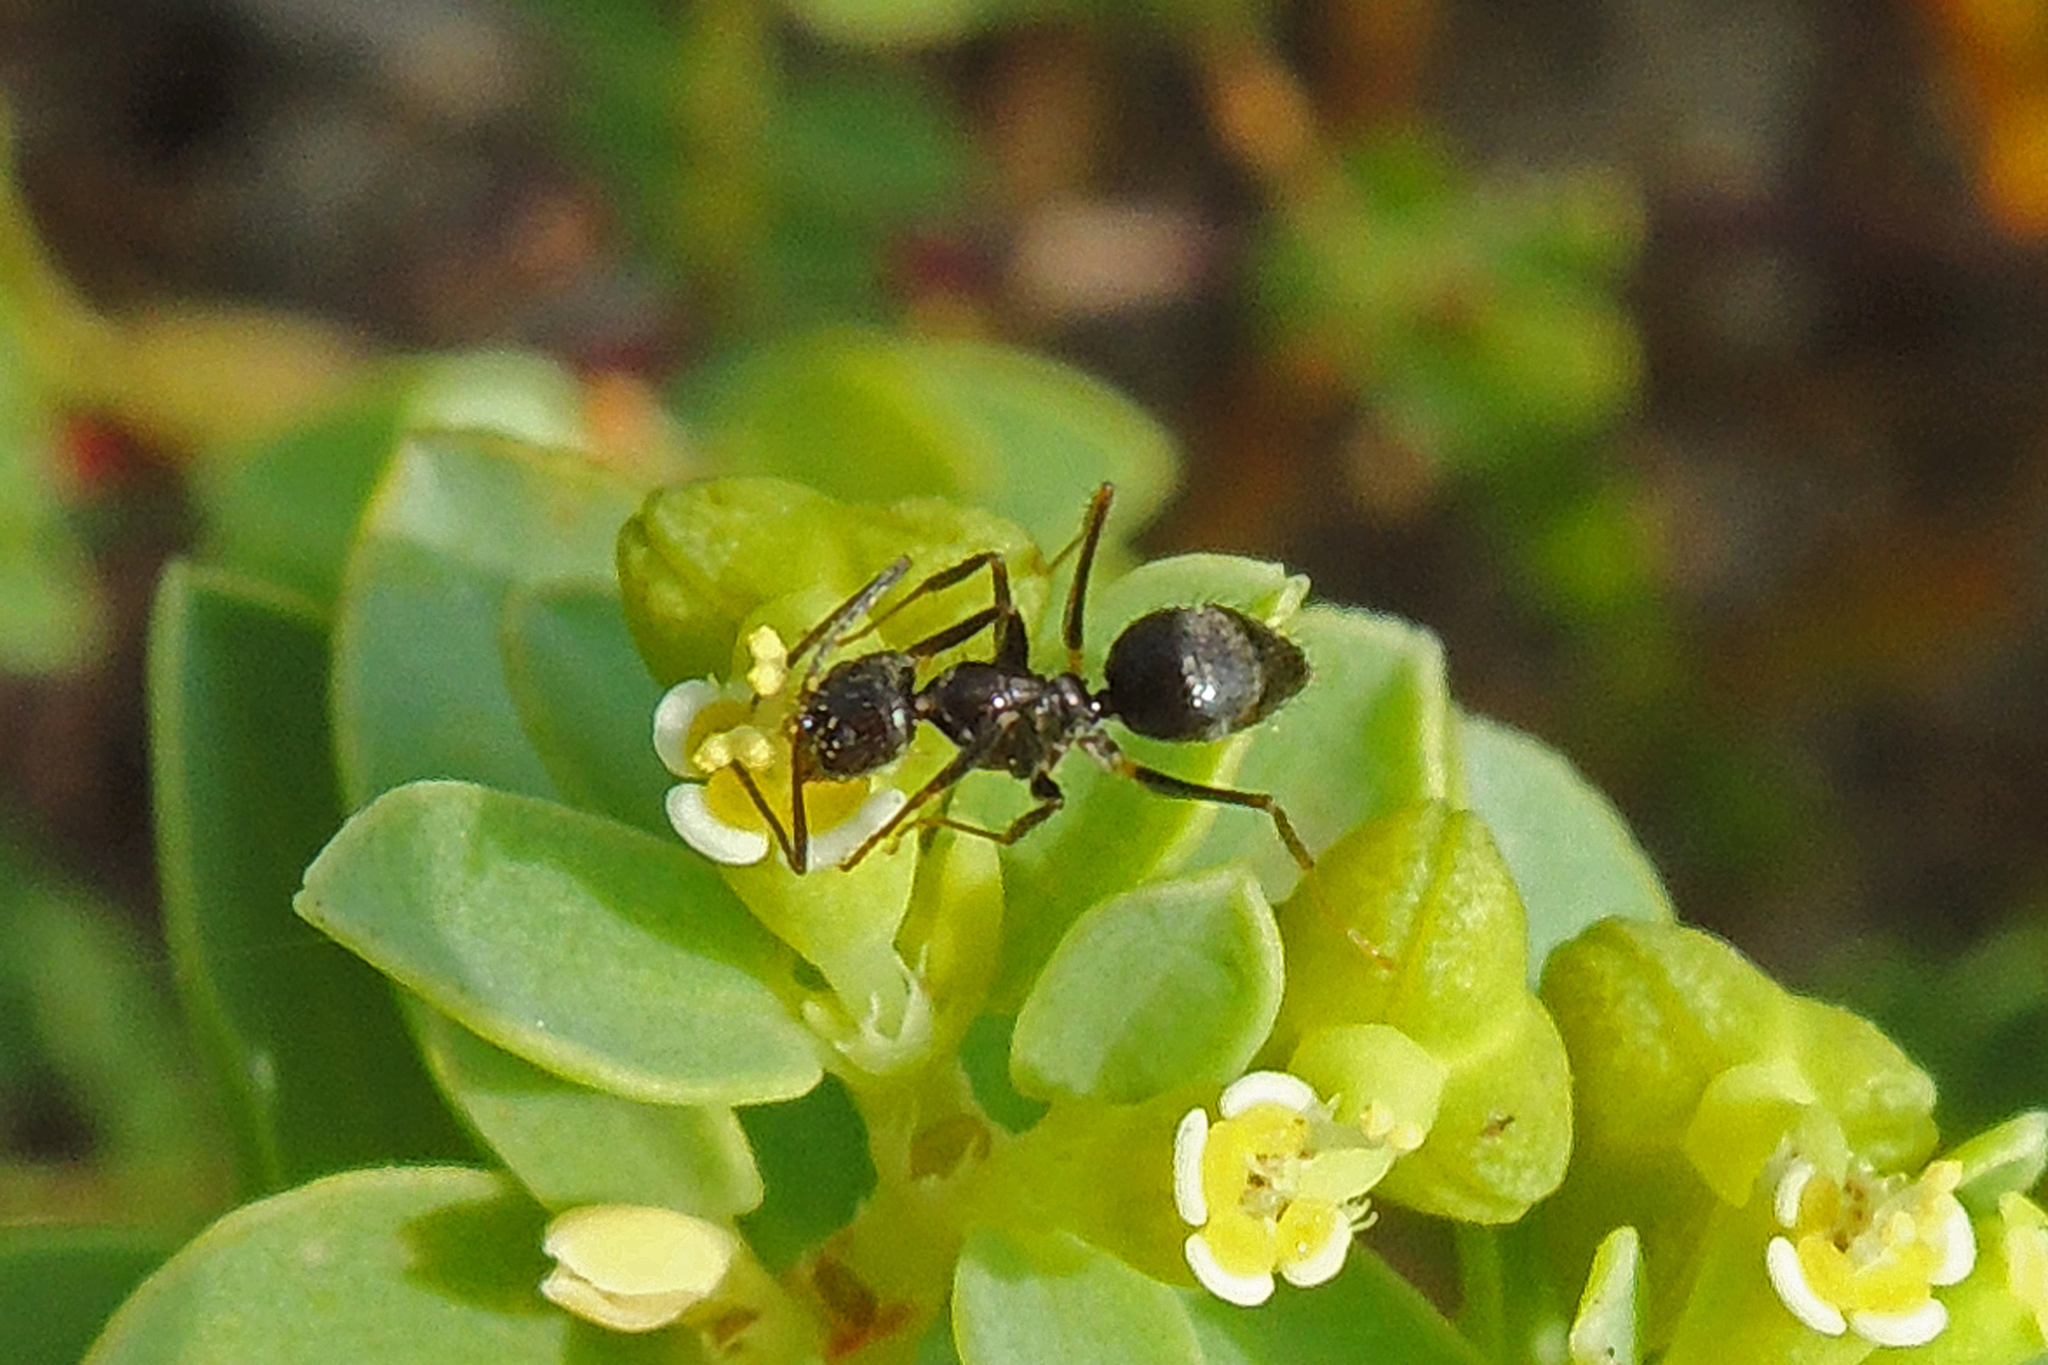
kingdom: Animalia
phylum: Arthropoda
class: Insecta
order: Hymenoptera
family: Formicidae
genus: Paratrechina
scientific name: Paratrechina bourbonica
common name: Ant
